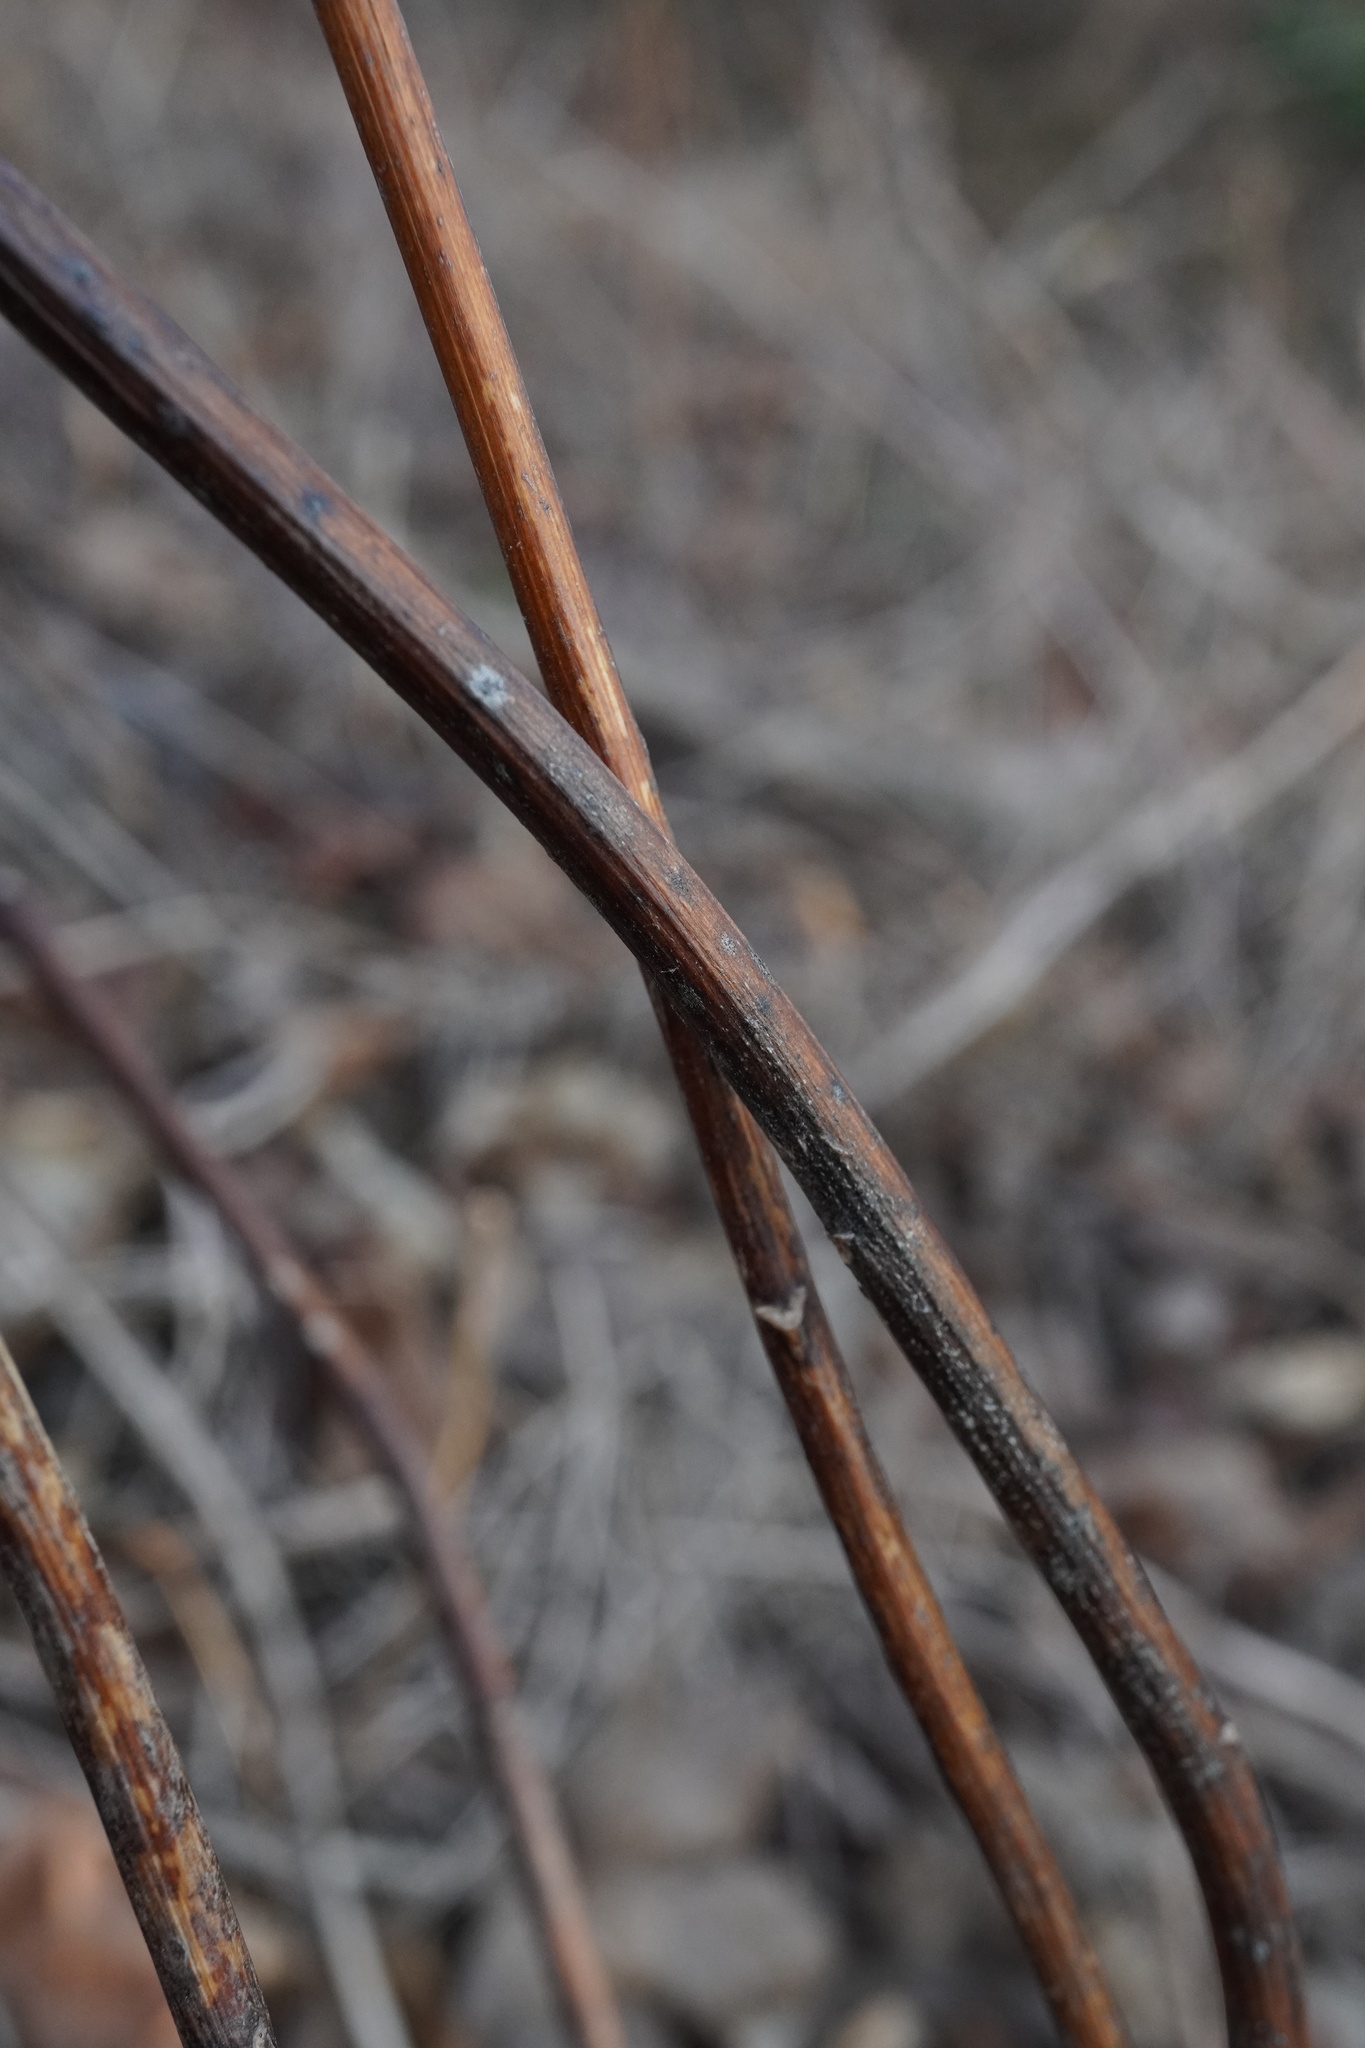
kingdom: Plantae
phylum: Tracheophyta
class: Magnoliopsida
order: Asterales
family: Asteraceae
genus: Solidago
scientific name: Solidago gigantea
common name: Giant goldenrod
